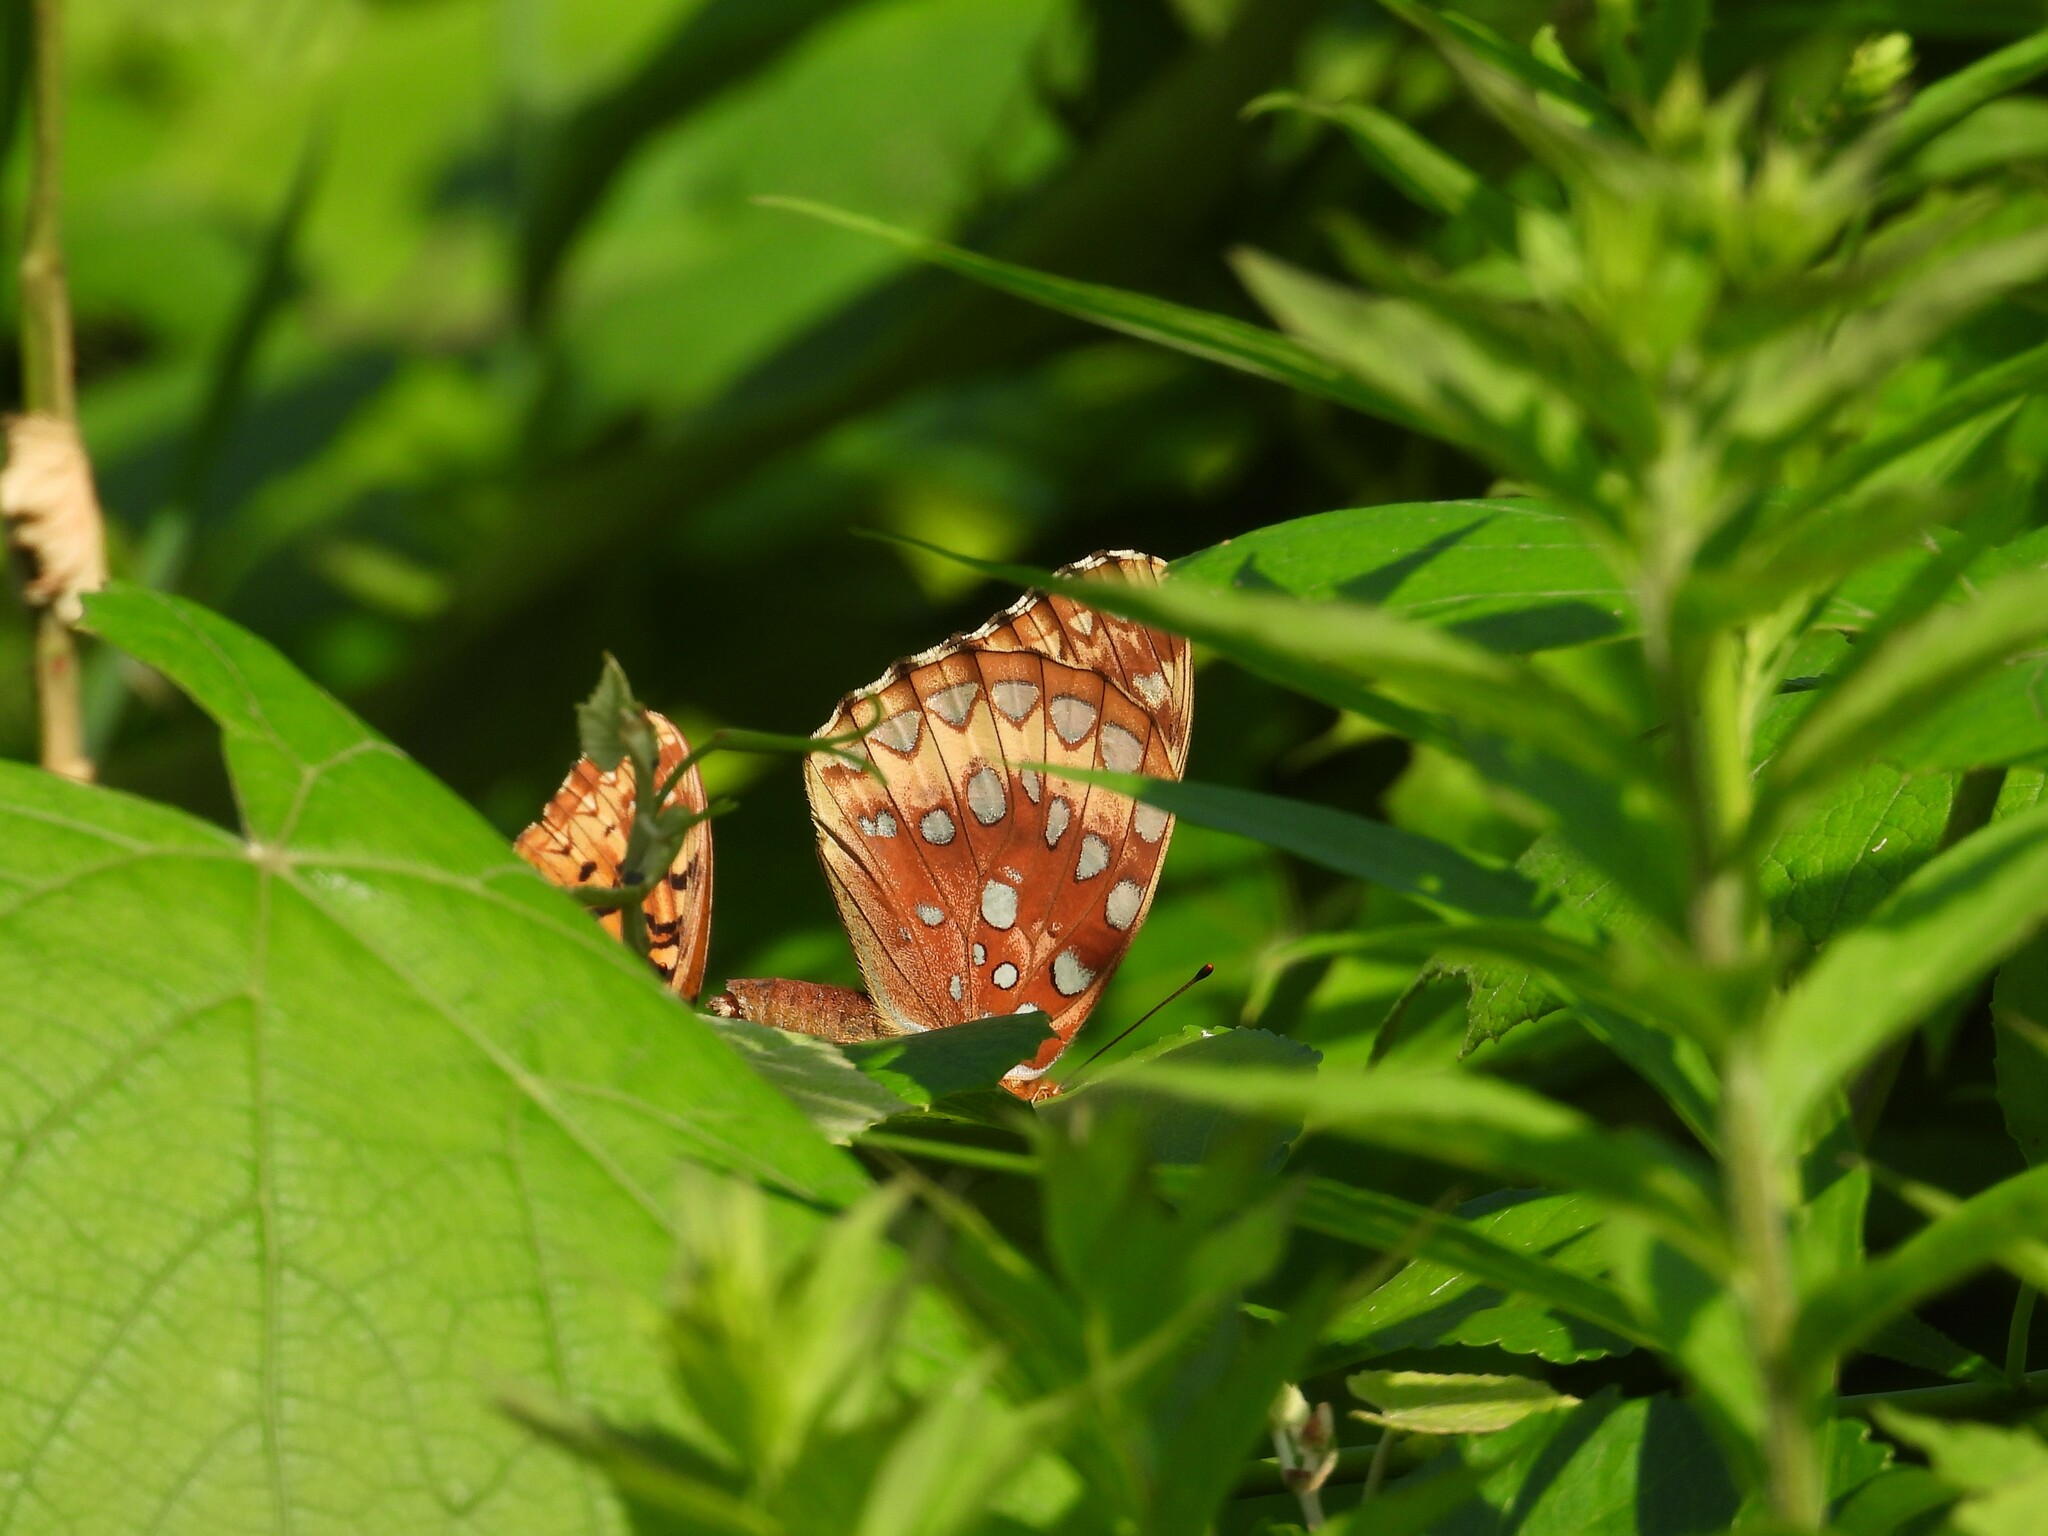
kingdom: Animalia
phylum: Arthropoda
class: Insecta
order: Lepidoptera
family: Nymphalidae
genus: Speyeria
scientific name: Speyeria cybele
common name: Great spangled fritillary
